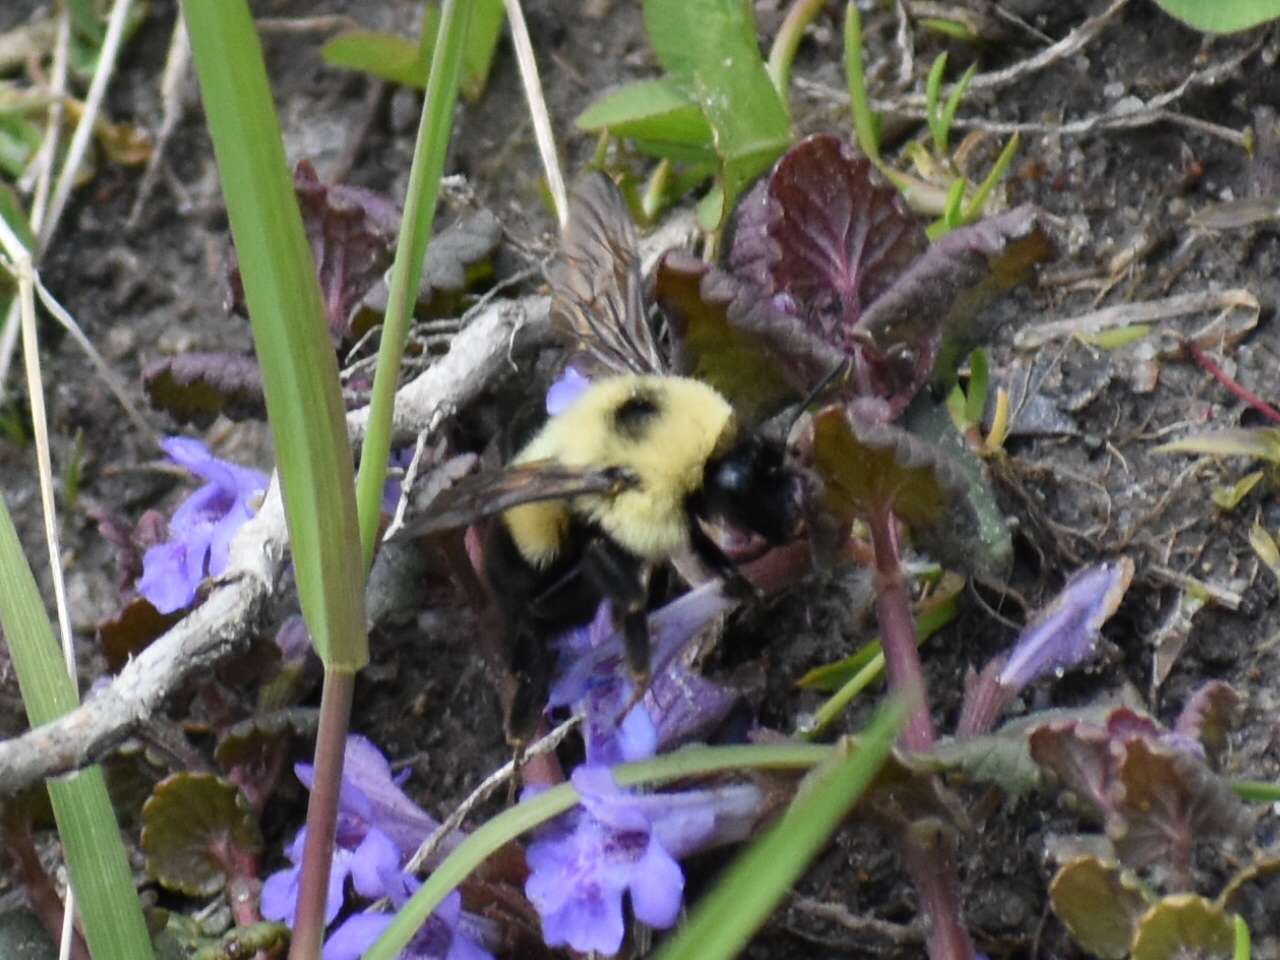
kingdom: Animalia
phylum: Arthropoda
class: Insecta
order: Hymenoptera
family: Apidae
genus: Bombus
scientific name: Bombus bimaculatus
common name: Two-spotted bumble bee
